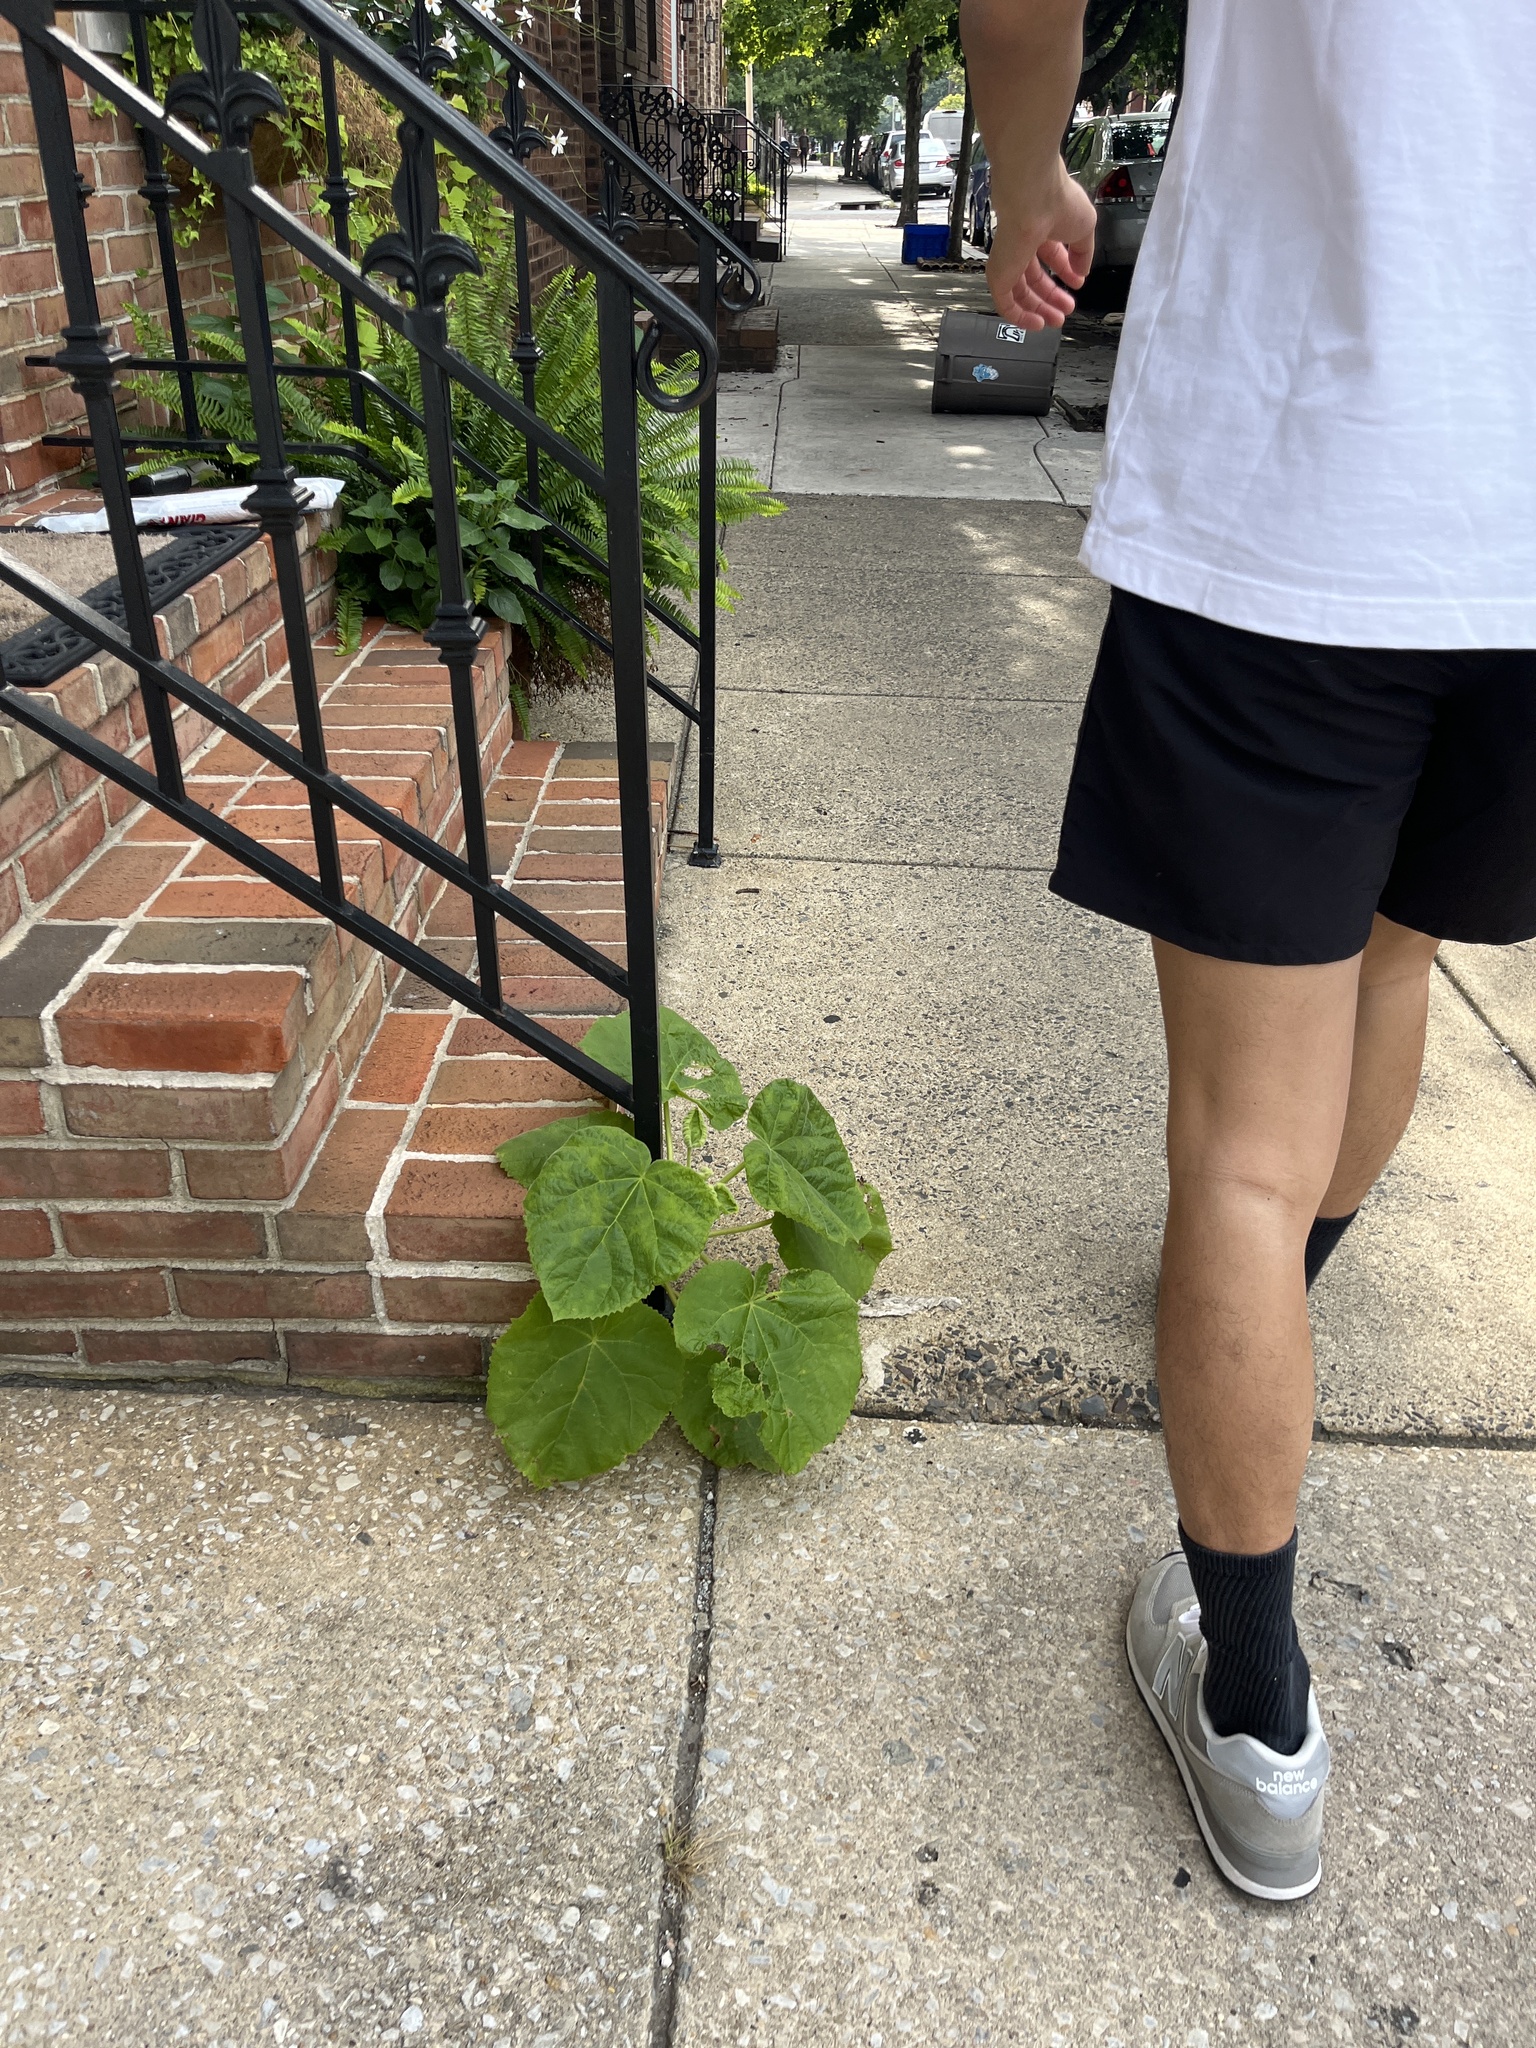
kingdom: Plantae
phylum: Tracheophyta
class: Magnoliopsida
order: Lamiales
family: Paulowniaceae
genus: Paulownia
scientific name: Paulownia tomentosa
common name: Foxglove-tree
